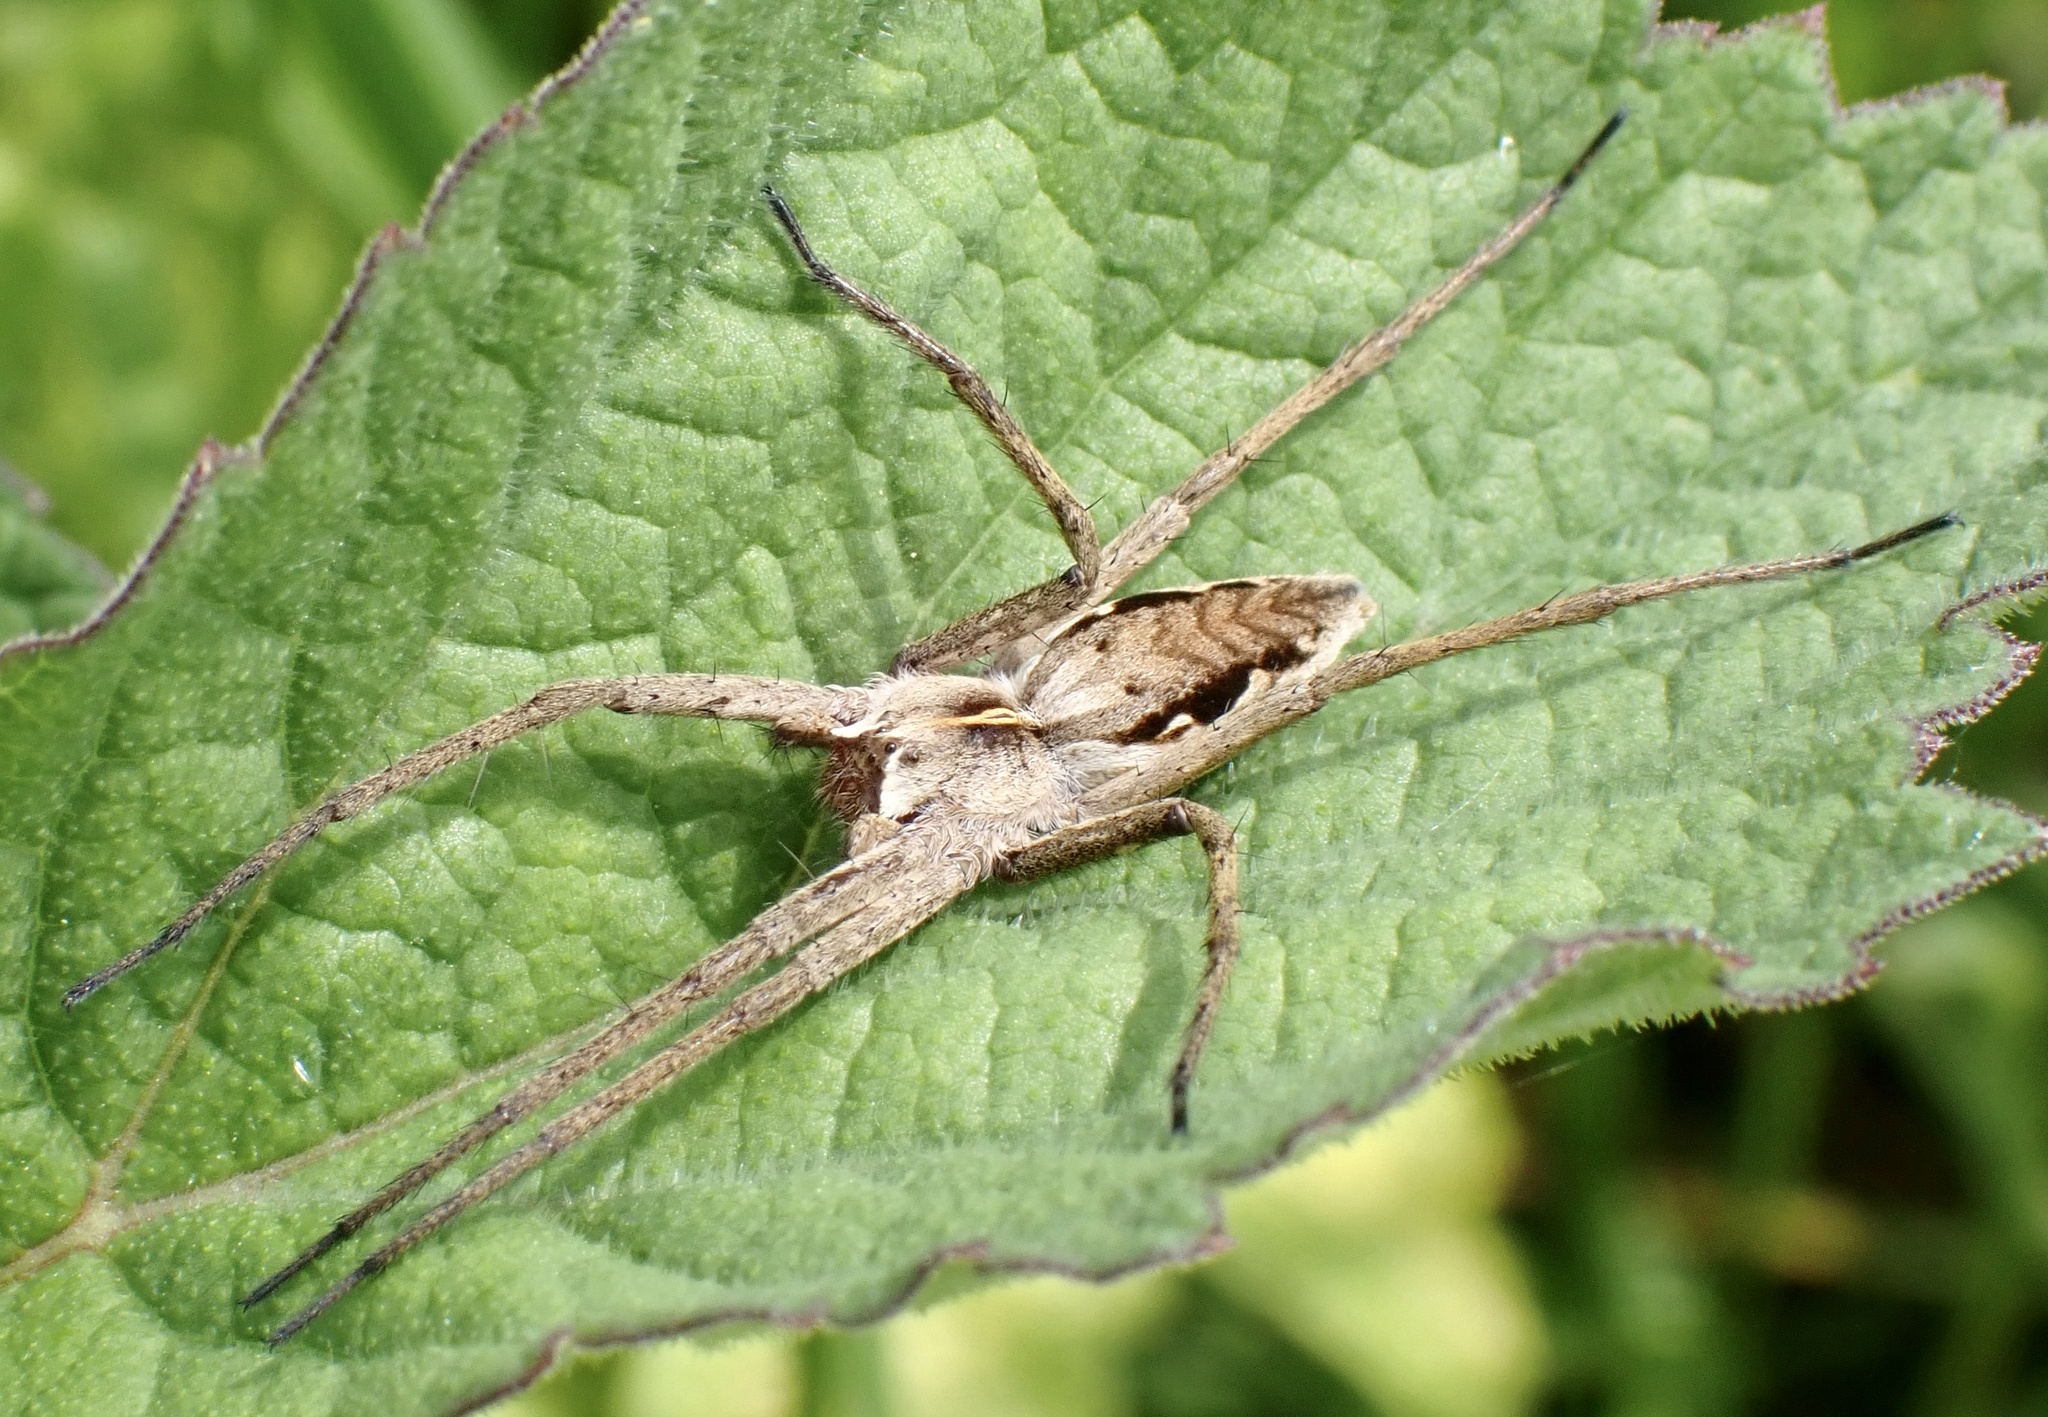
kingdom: Animalia
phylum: Arthropoda
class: Arachnida
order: Araneae
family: Pisauridae
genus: Pisaura
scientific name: Pisaura mirabilis
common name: Tent spider
